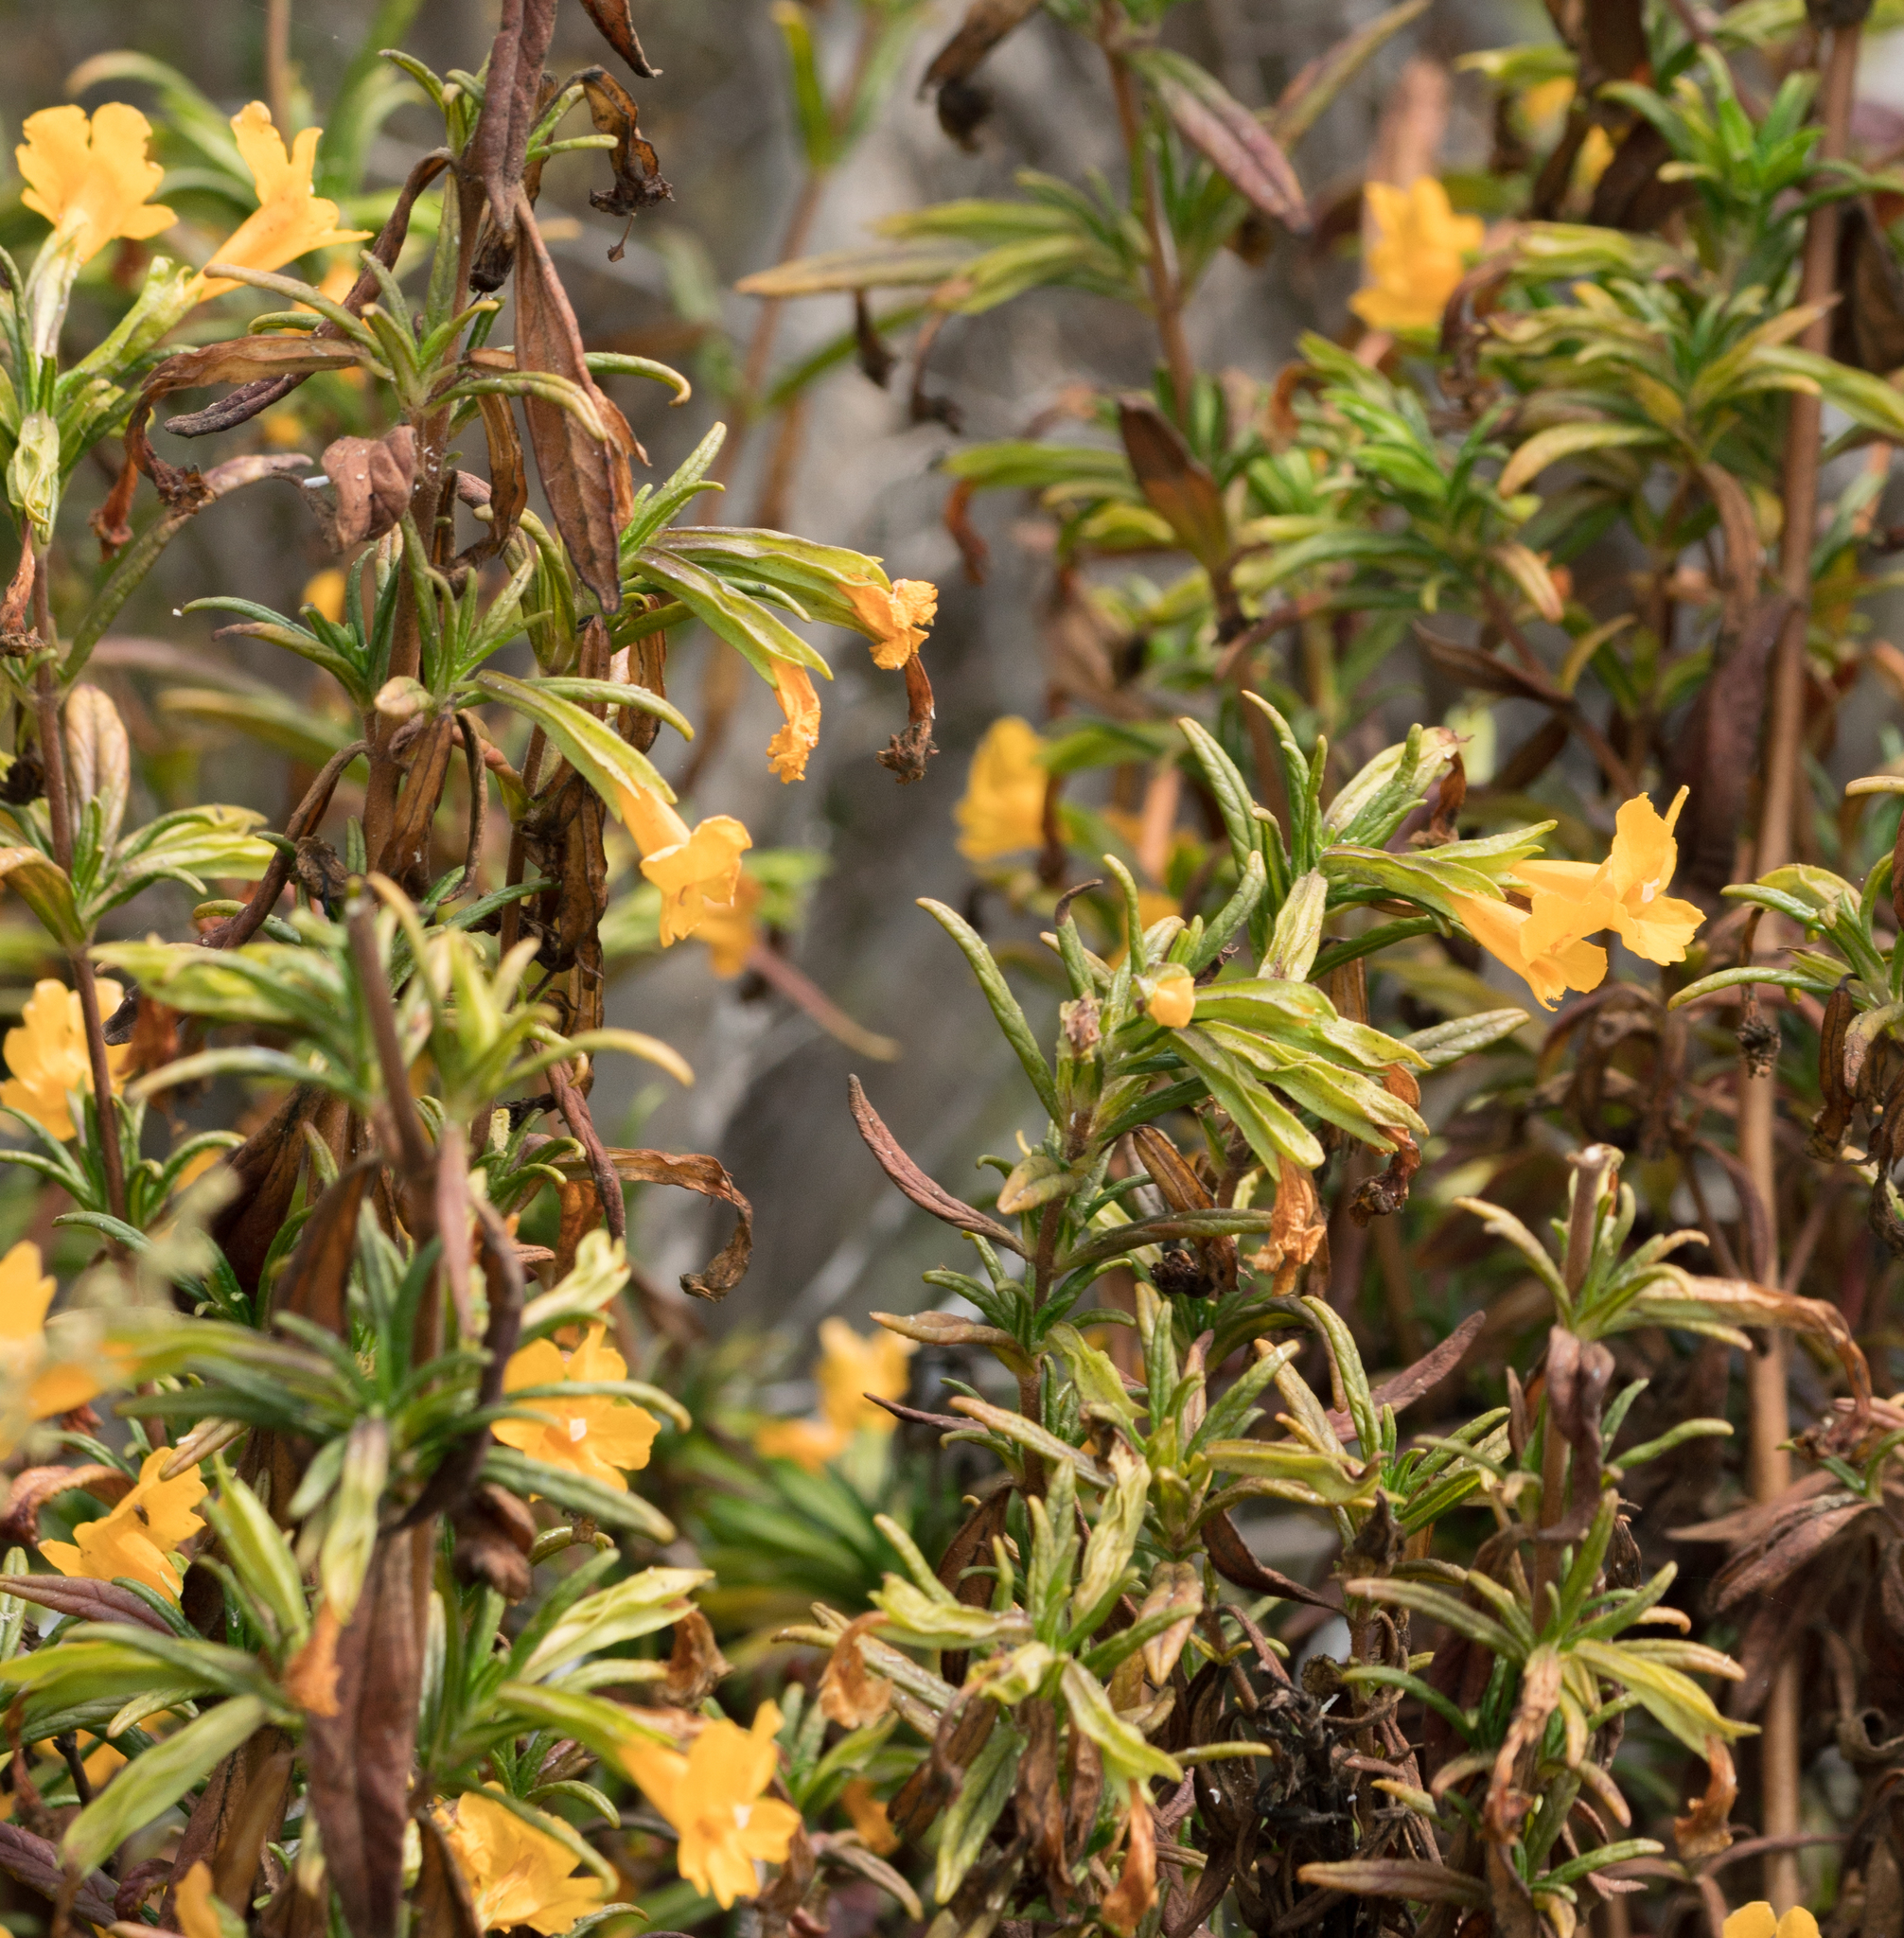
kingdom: Plantae
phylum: Tracheophyta
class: Magnoliopsida
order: Lamiales
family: Phrymaceae
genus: Diplacus
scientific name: Diplacus aurantiacus
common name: Bush monkey-flower
